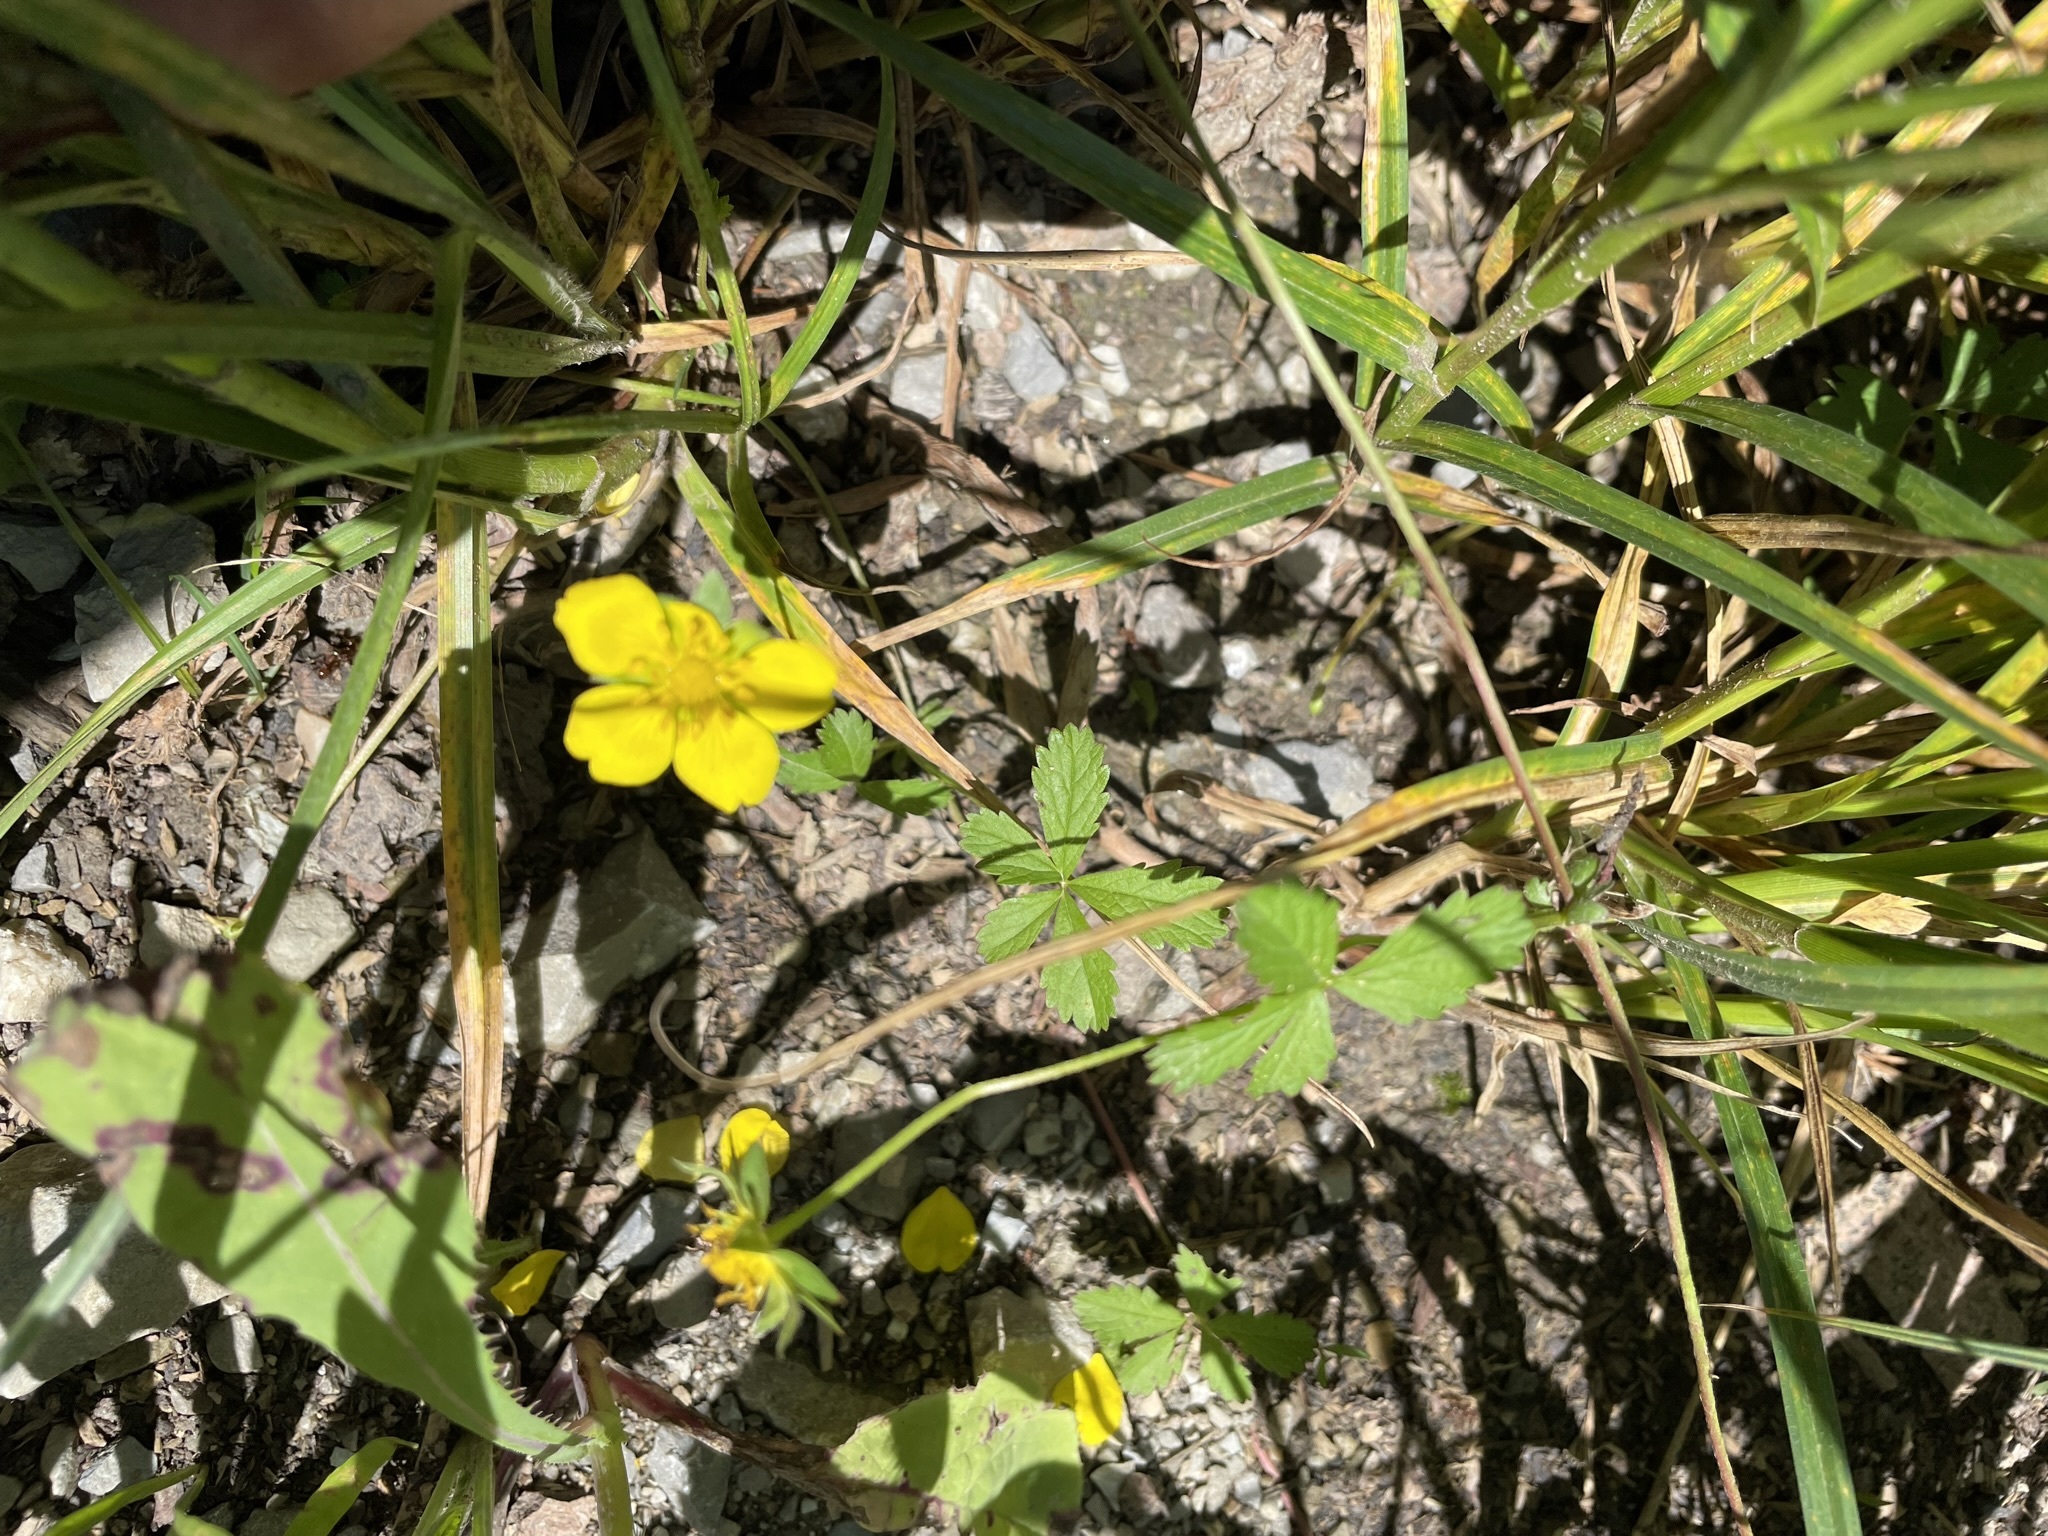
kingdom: Plantae
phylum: Tracheophyta
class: Magnoliopsida
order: Rosales
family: Rosaceae
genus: Potentilla
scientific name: Potentilla reptans
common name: Creeping cinquefoil
